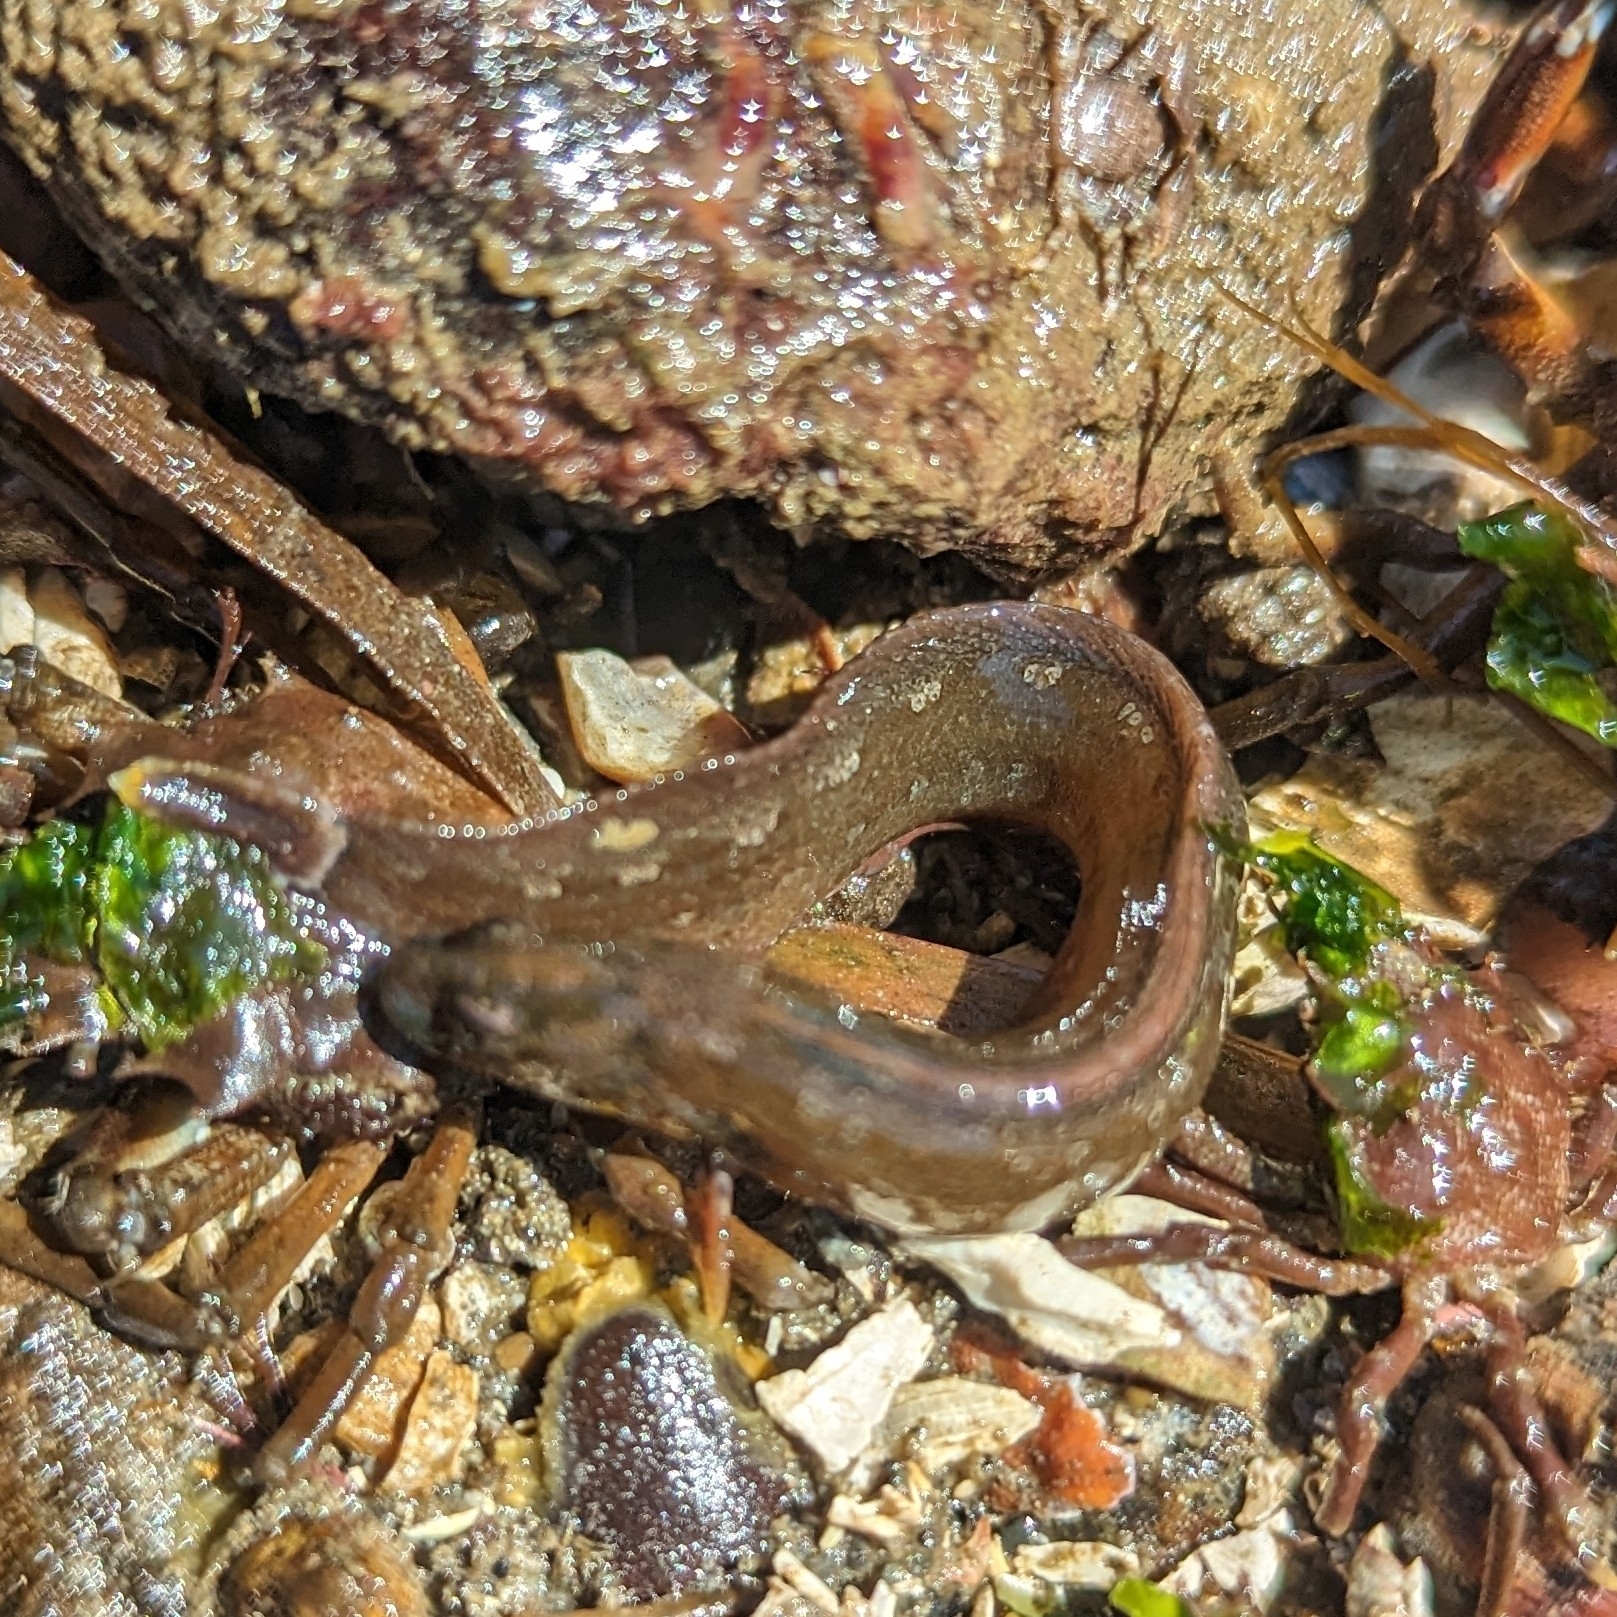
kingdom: Animalia
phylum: Chordata
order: Perciformes
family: Stichaeidae
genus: Anoplarchus
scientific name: Anoplarchus purpurescens
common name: High cockscomb
